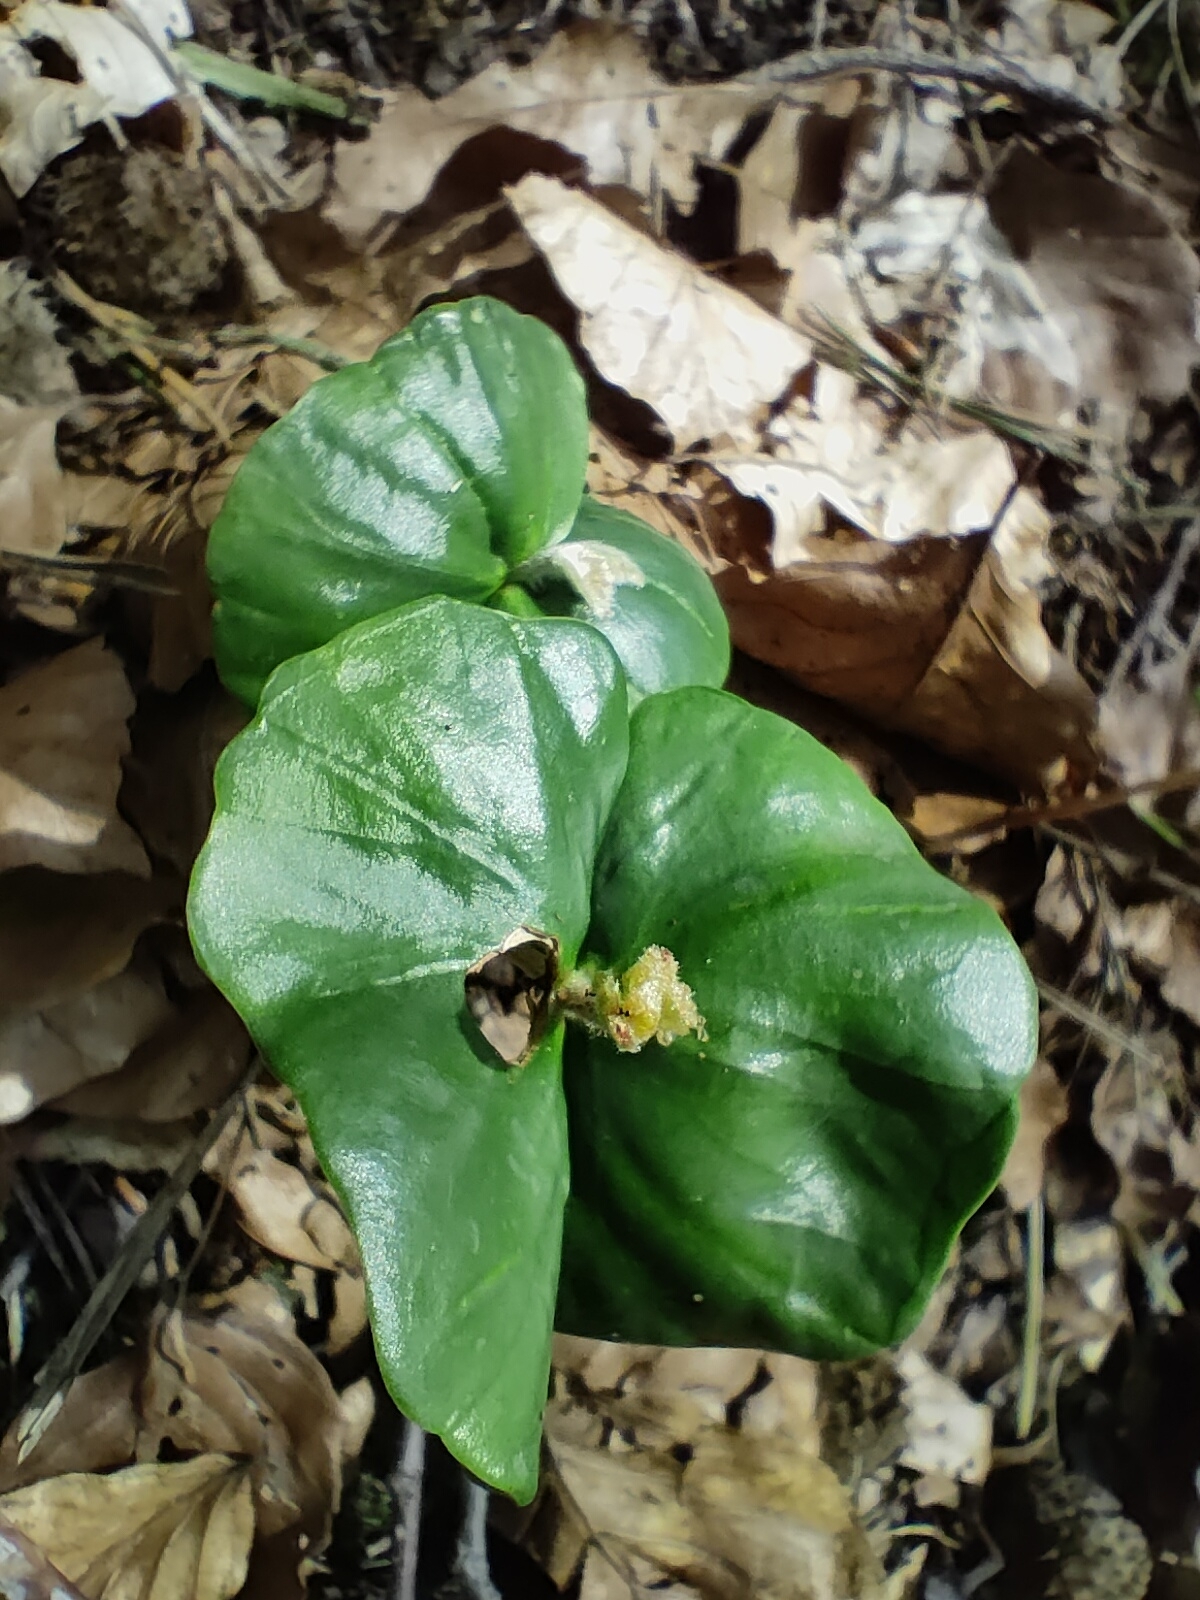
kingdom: Plantae
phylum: Tracheophyta
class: Magnoliopsida
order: Fagales
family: Fagaceae
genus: Fagus
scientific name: Fagus sylvatica
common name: Beech
